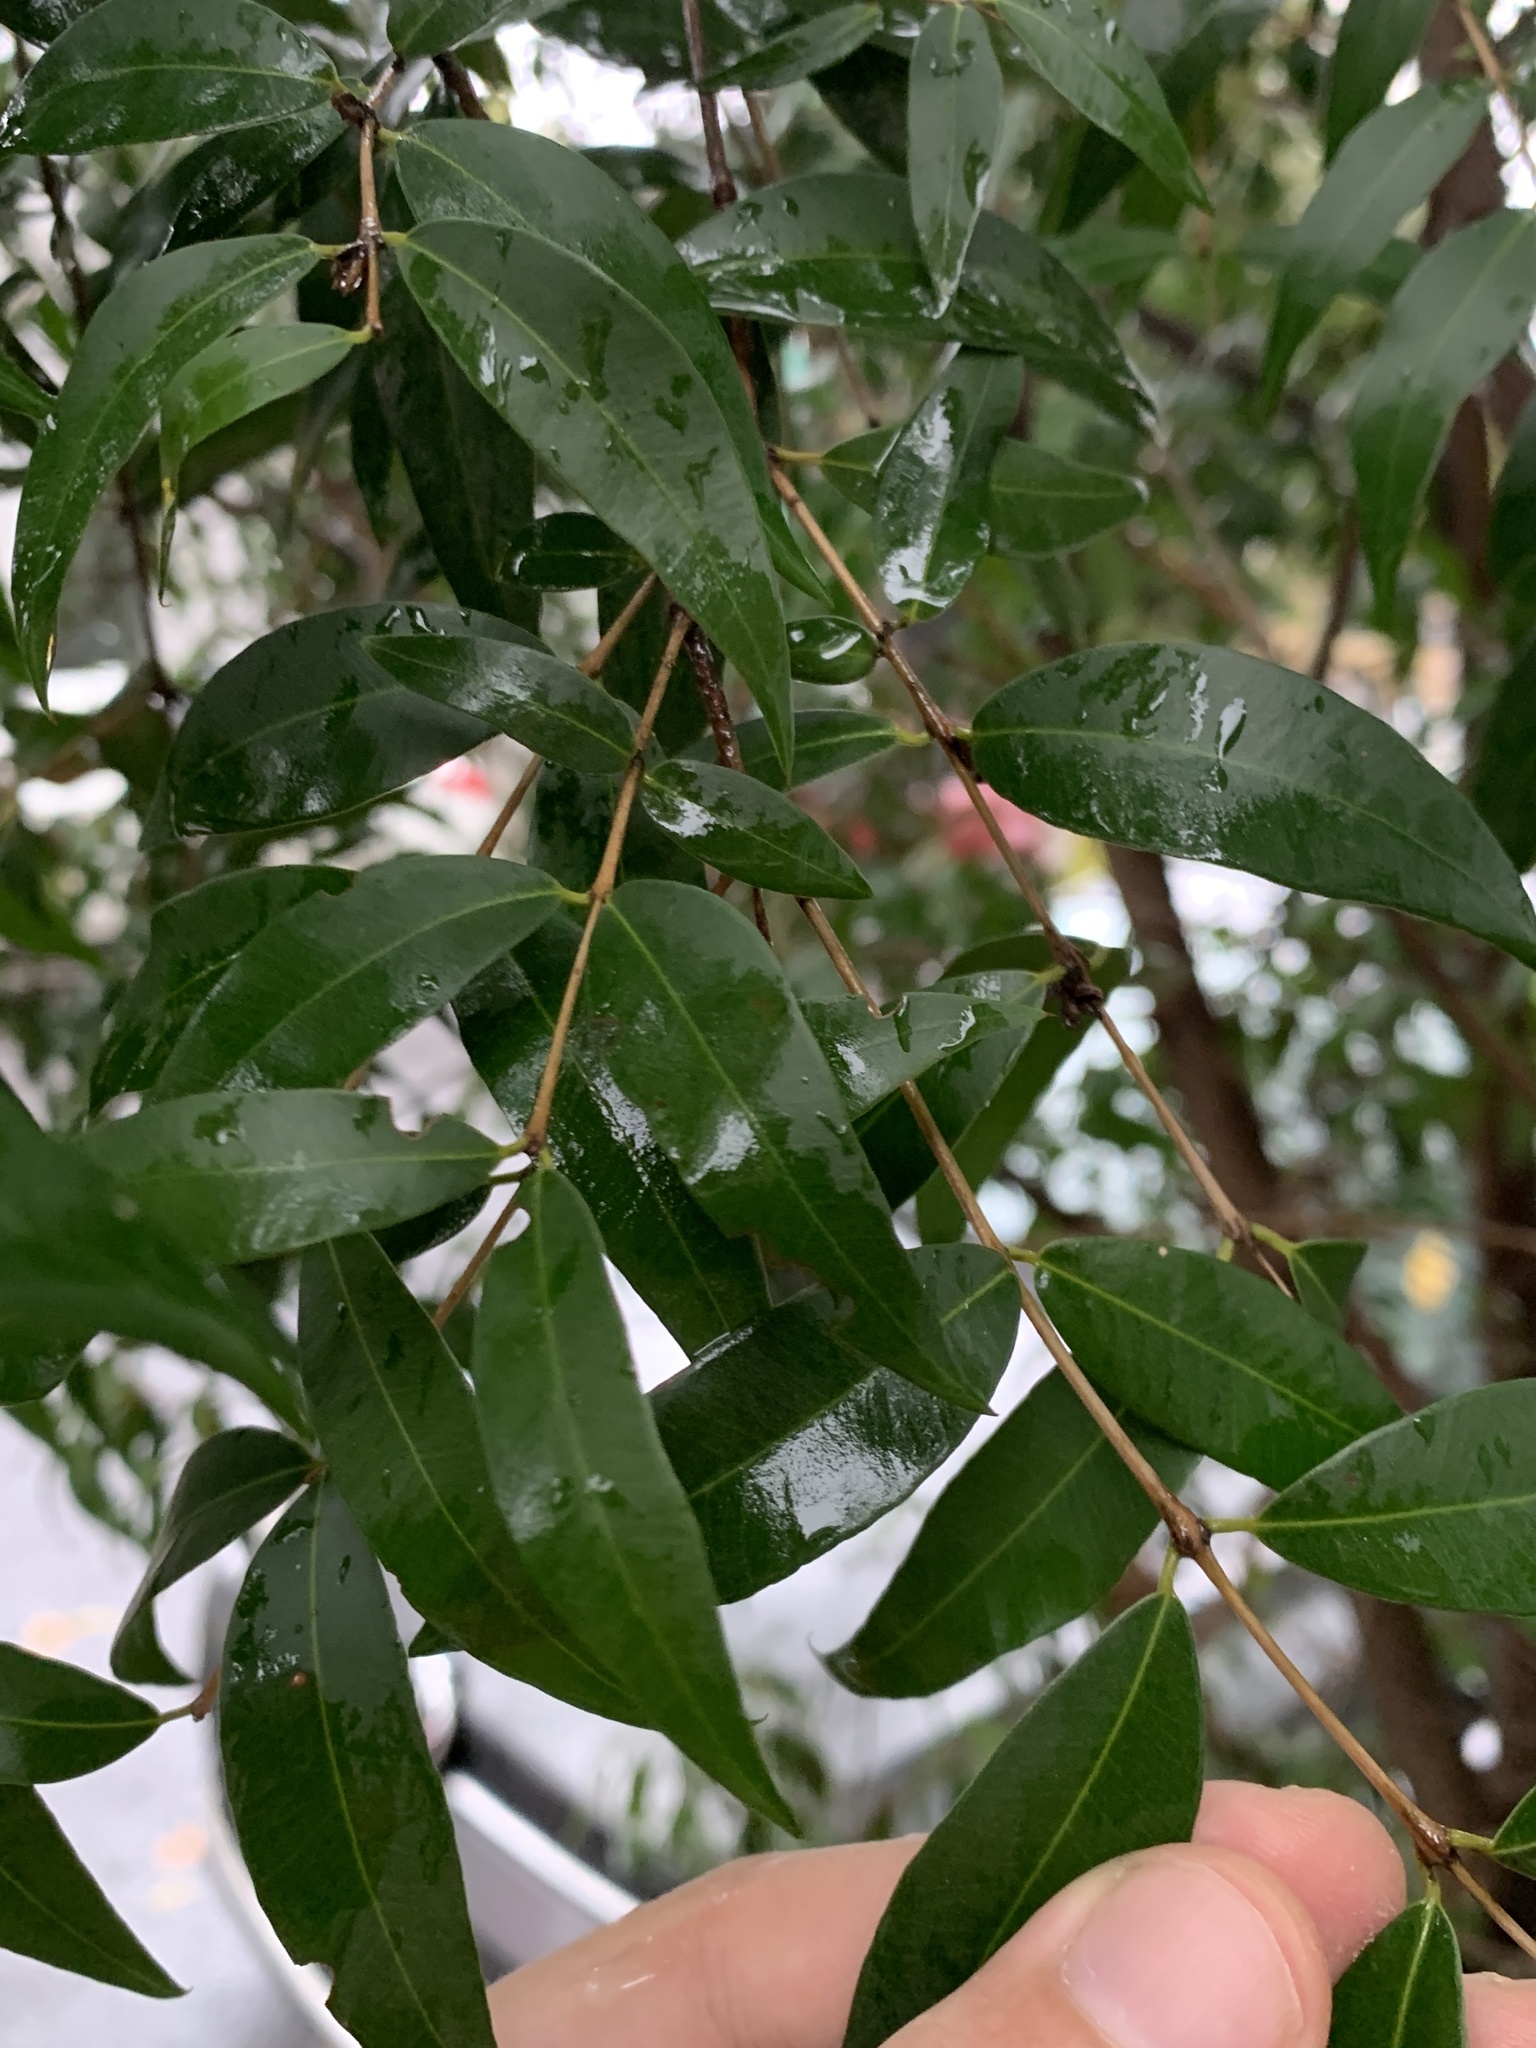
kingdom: Plantae
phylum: Tracheophyta
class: Magnoliopsida
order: Myrtales
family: Myrtaceae
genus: Blepharocalyx
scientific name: Blepharocalyx salicifolius
